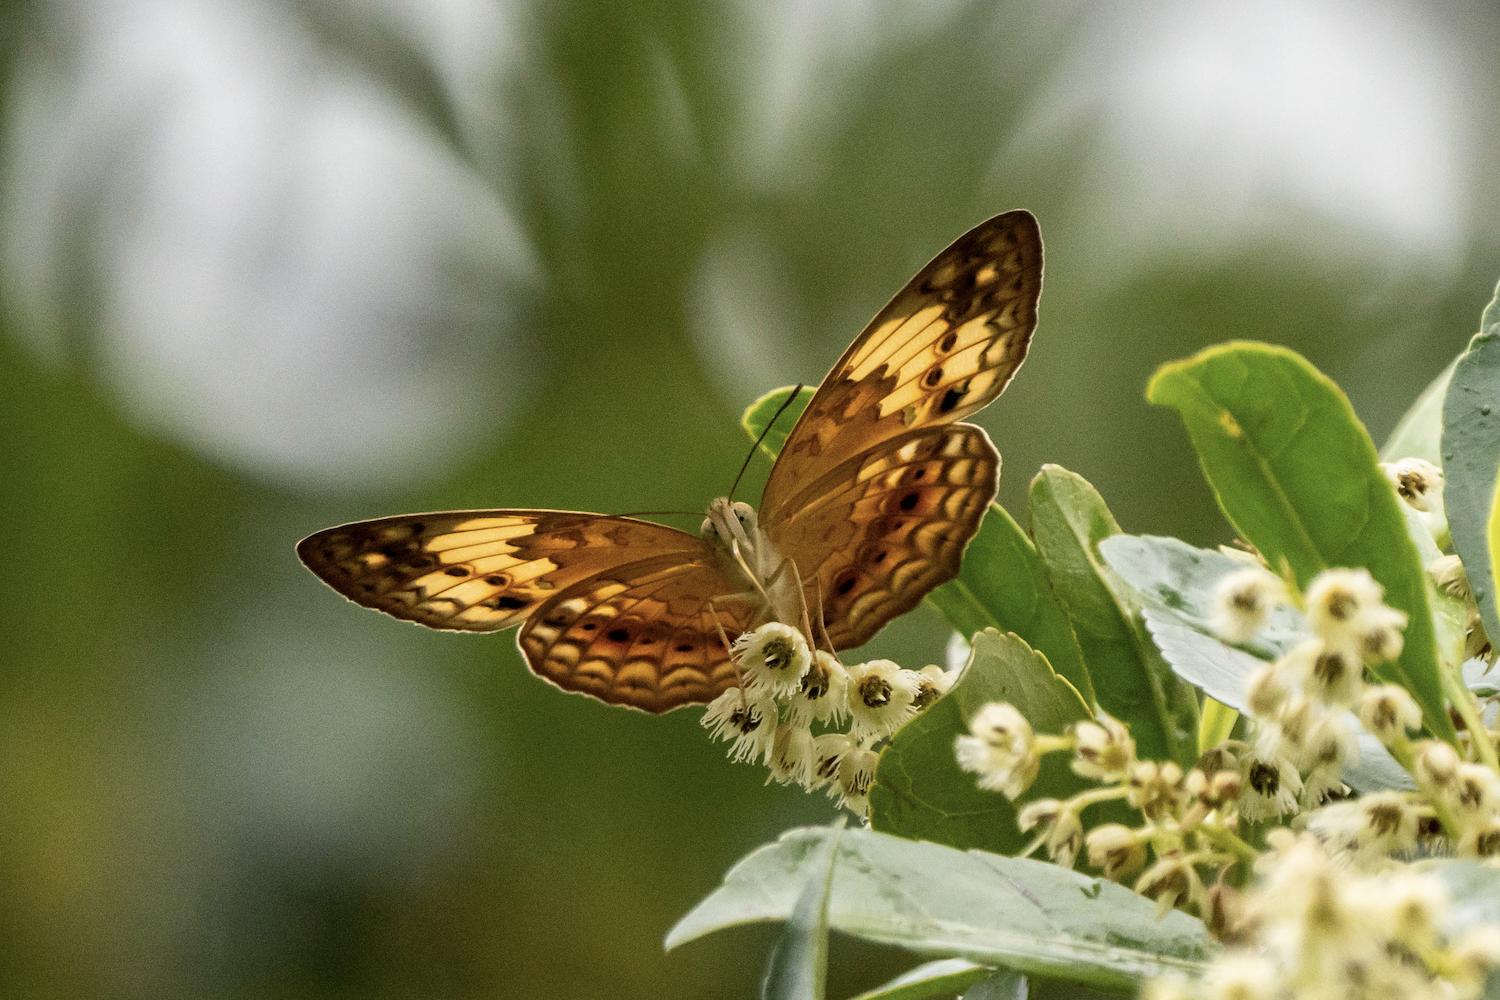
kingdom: Animalia
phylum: Arthropoda
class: Insecta
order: Lepidoptera
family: Nymphalidae
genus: Cupha
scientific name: Cupha erymanthis
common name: Rustic
